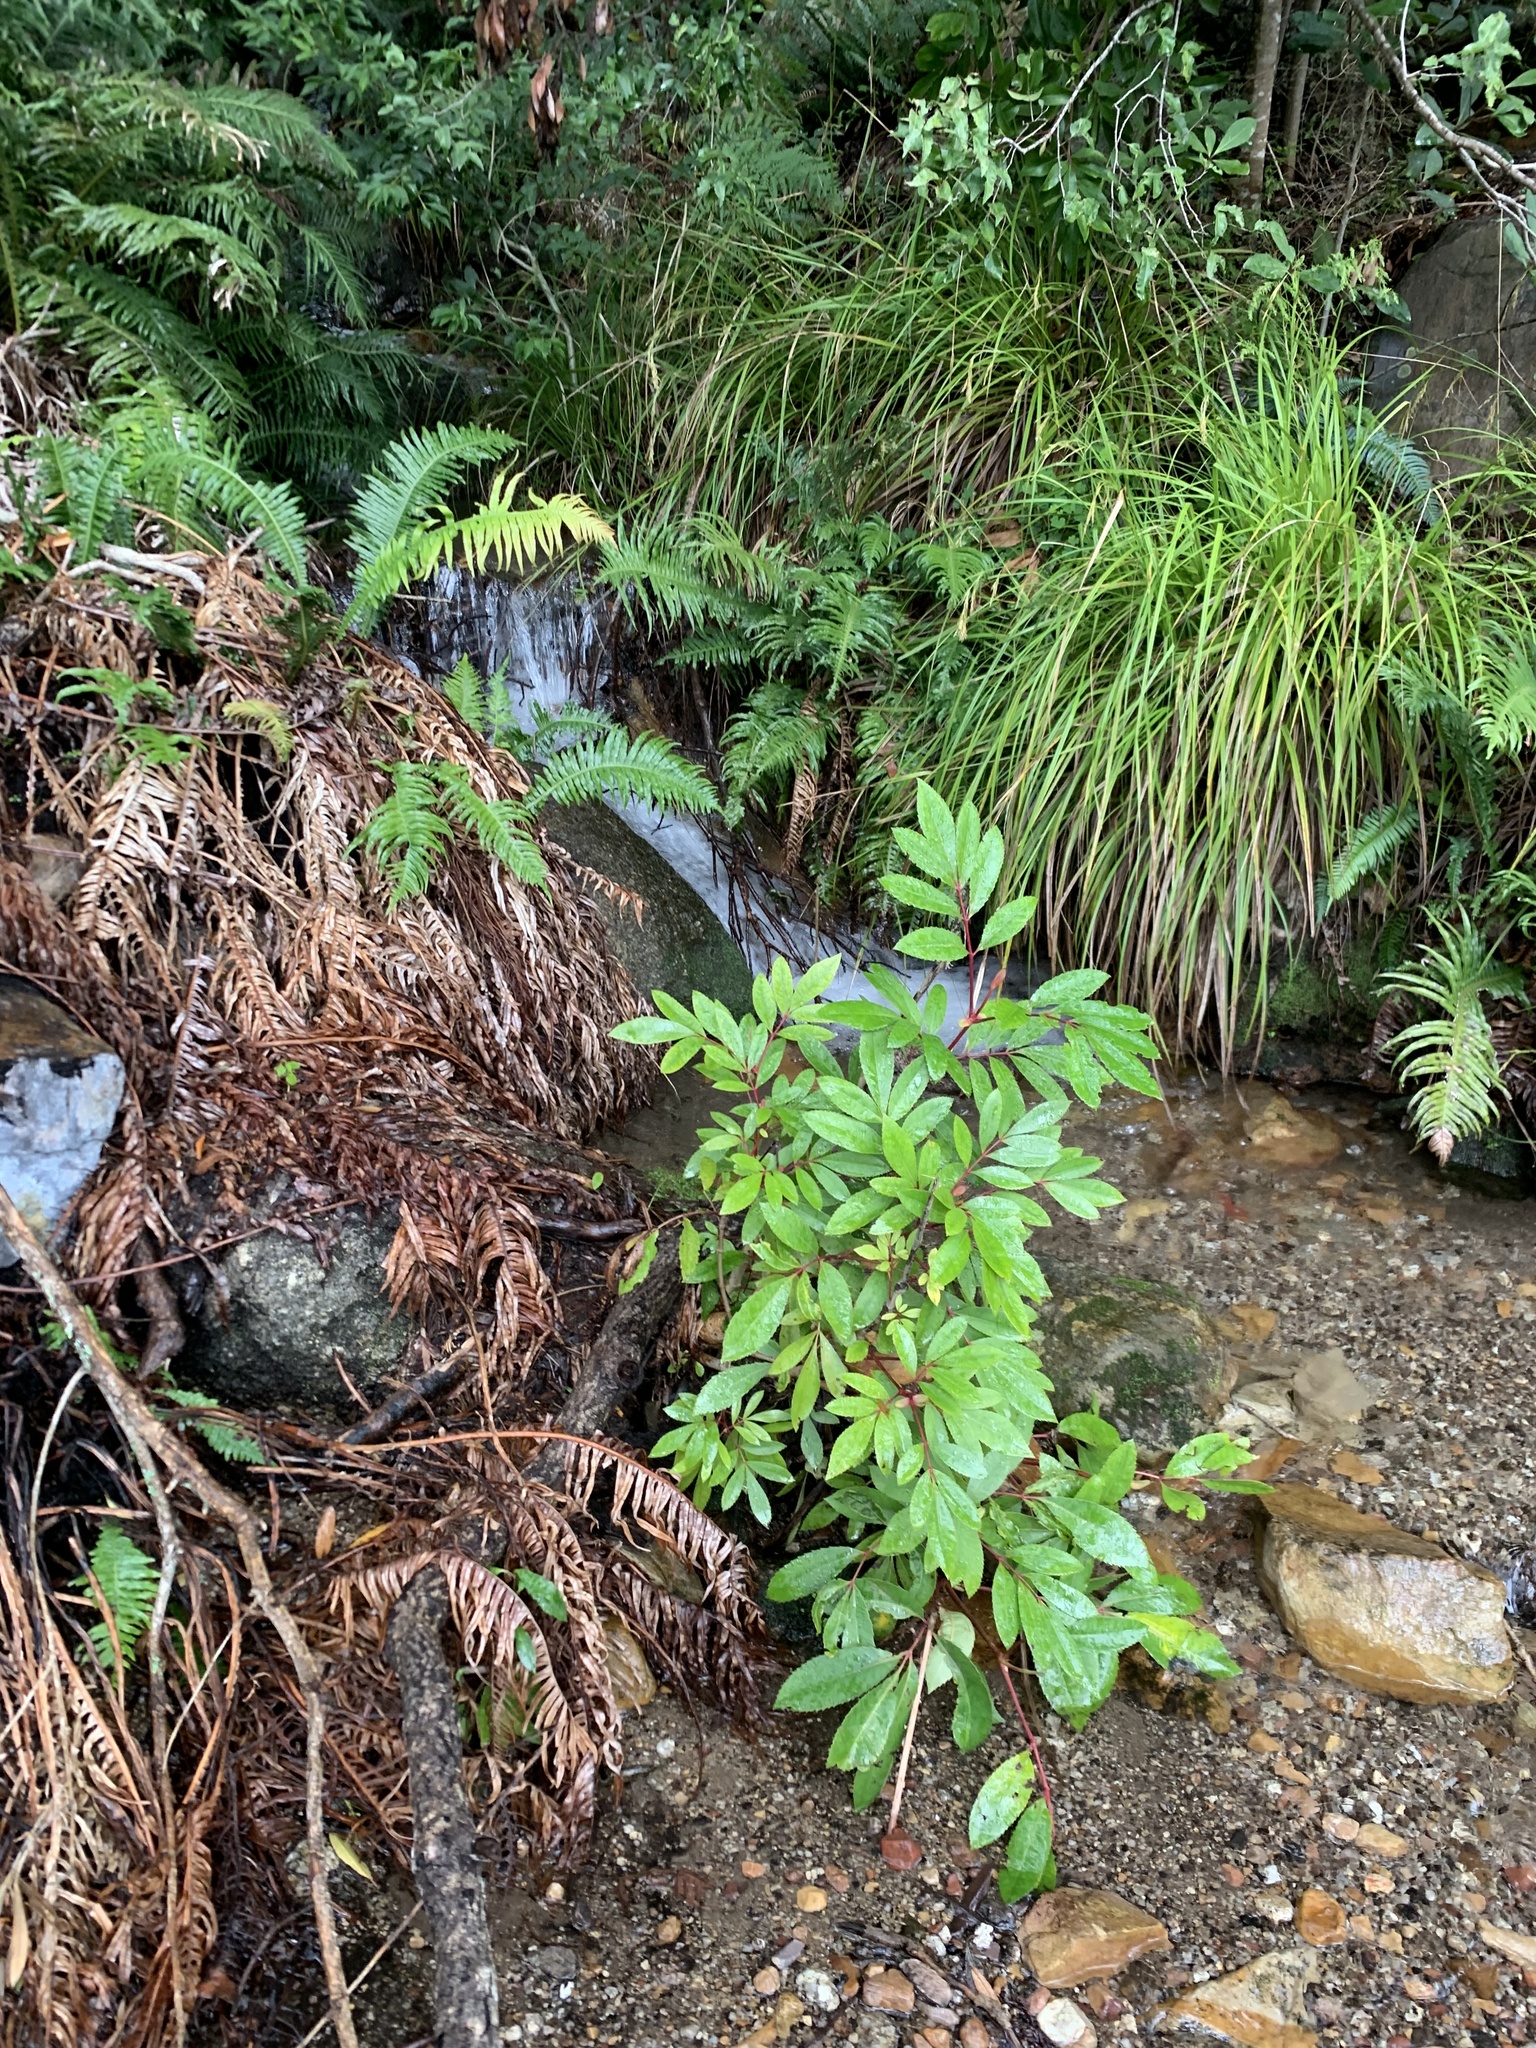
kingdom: Plantae
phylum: Tracheophyta
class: Magnoliopsida
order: Oxalidales
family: Cunoniaceae
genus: Cunonia
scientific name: Cunonia capensis
